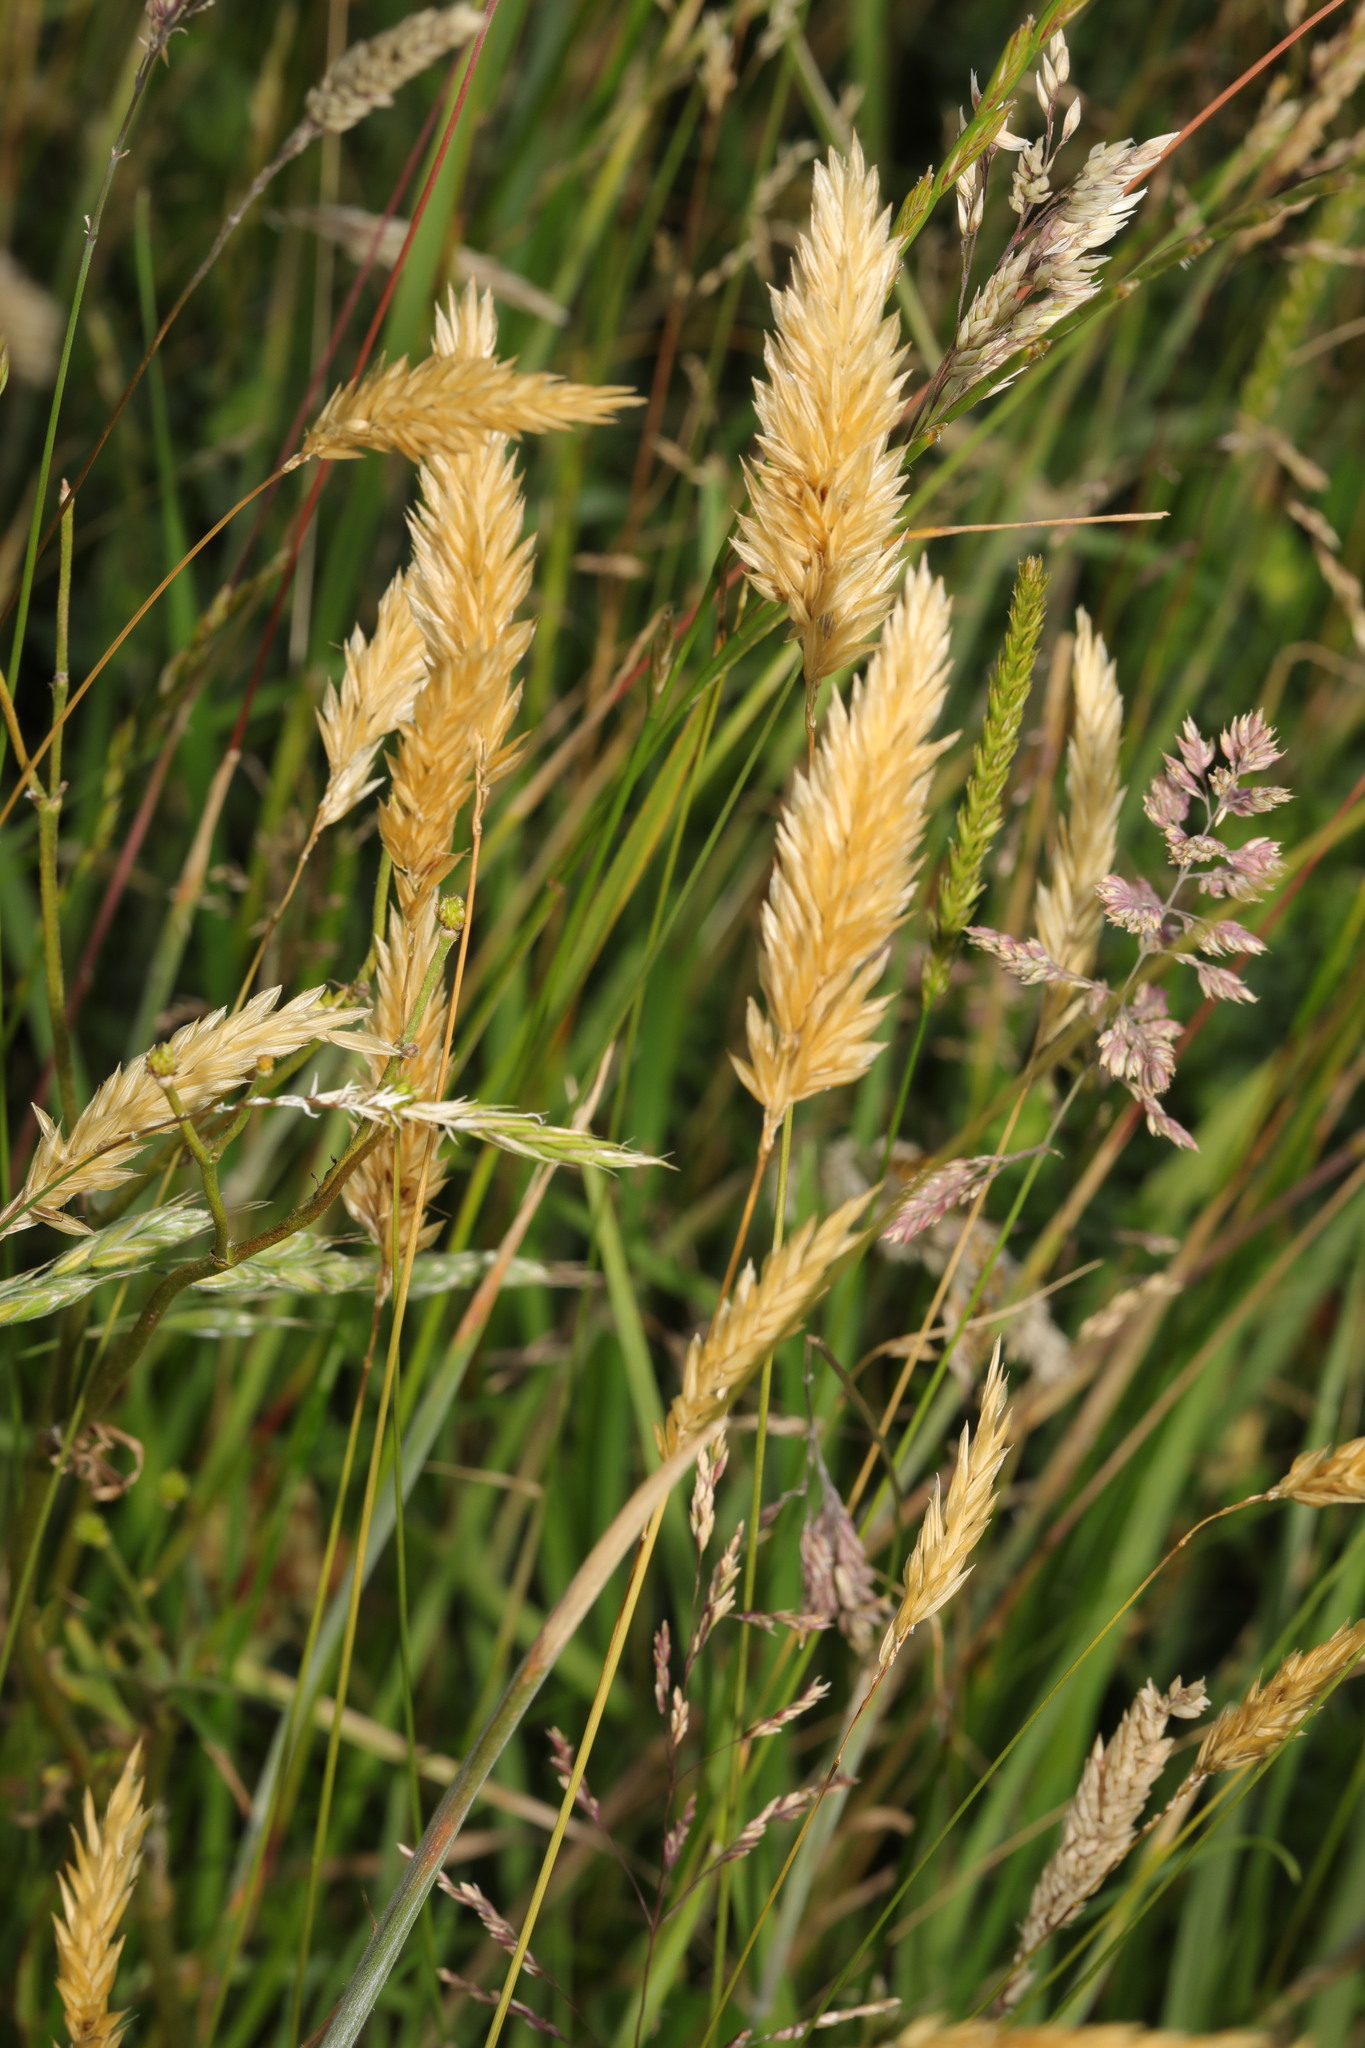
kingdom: Plantae
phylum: Tracheophyta
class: Liliopsida
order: Poales
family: Poaceae
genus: Anthoxanthum
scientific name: Anthoxanthum odoratum
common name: Sweet vernalgrass
